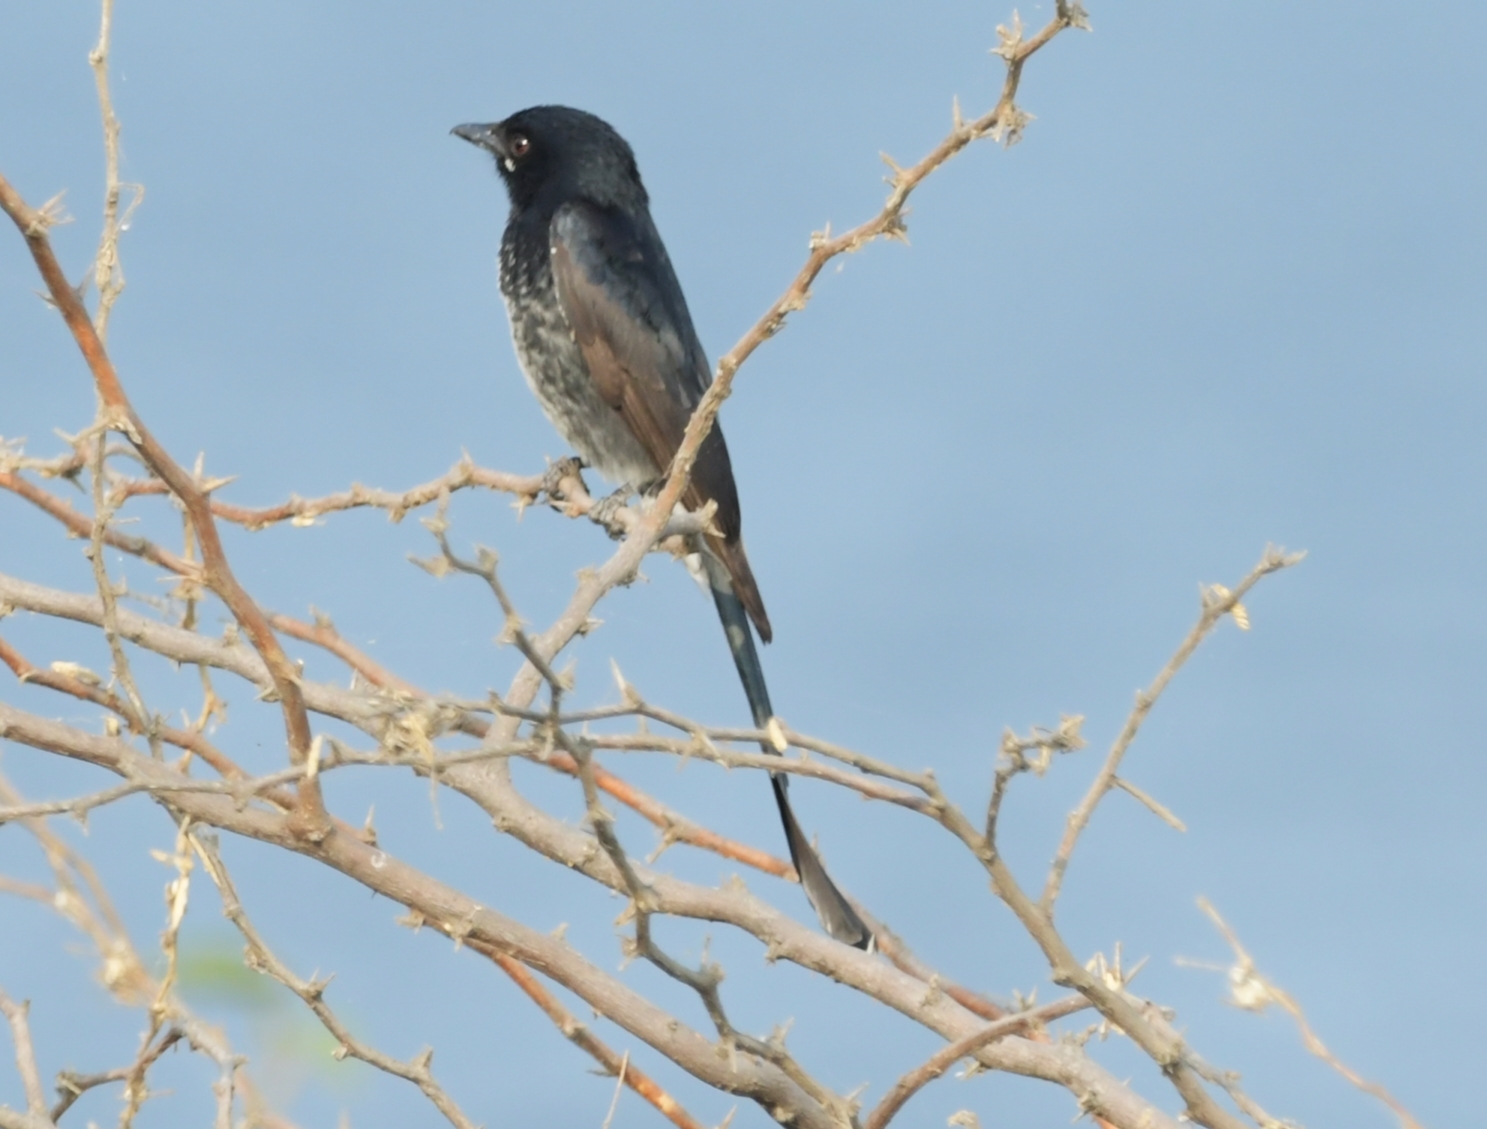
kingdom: Animalia
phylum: Chordata
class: Aves
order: Passeriformes
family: Dicruridae
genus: Dicrurus
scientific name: Dicrurus macrocercus
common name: Black drongo
